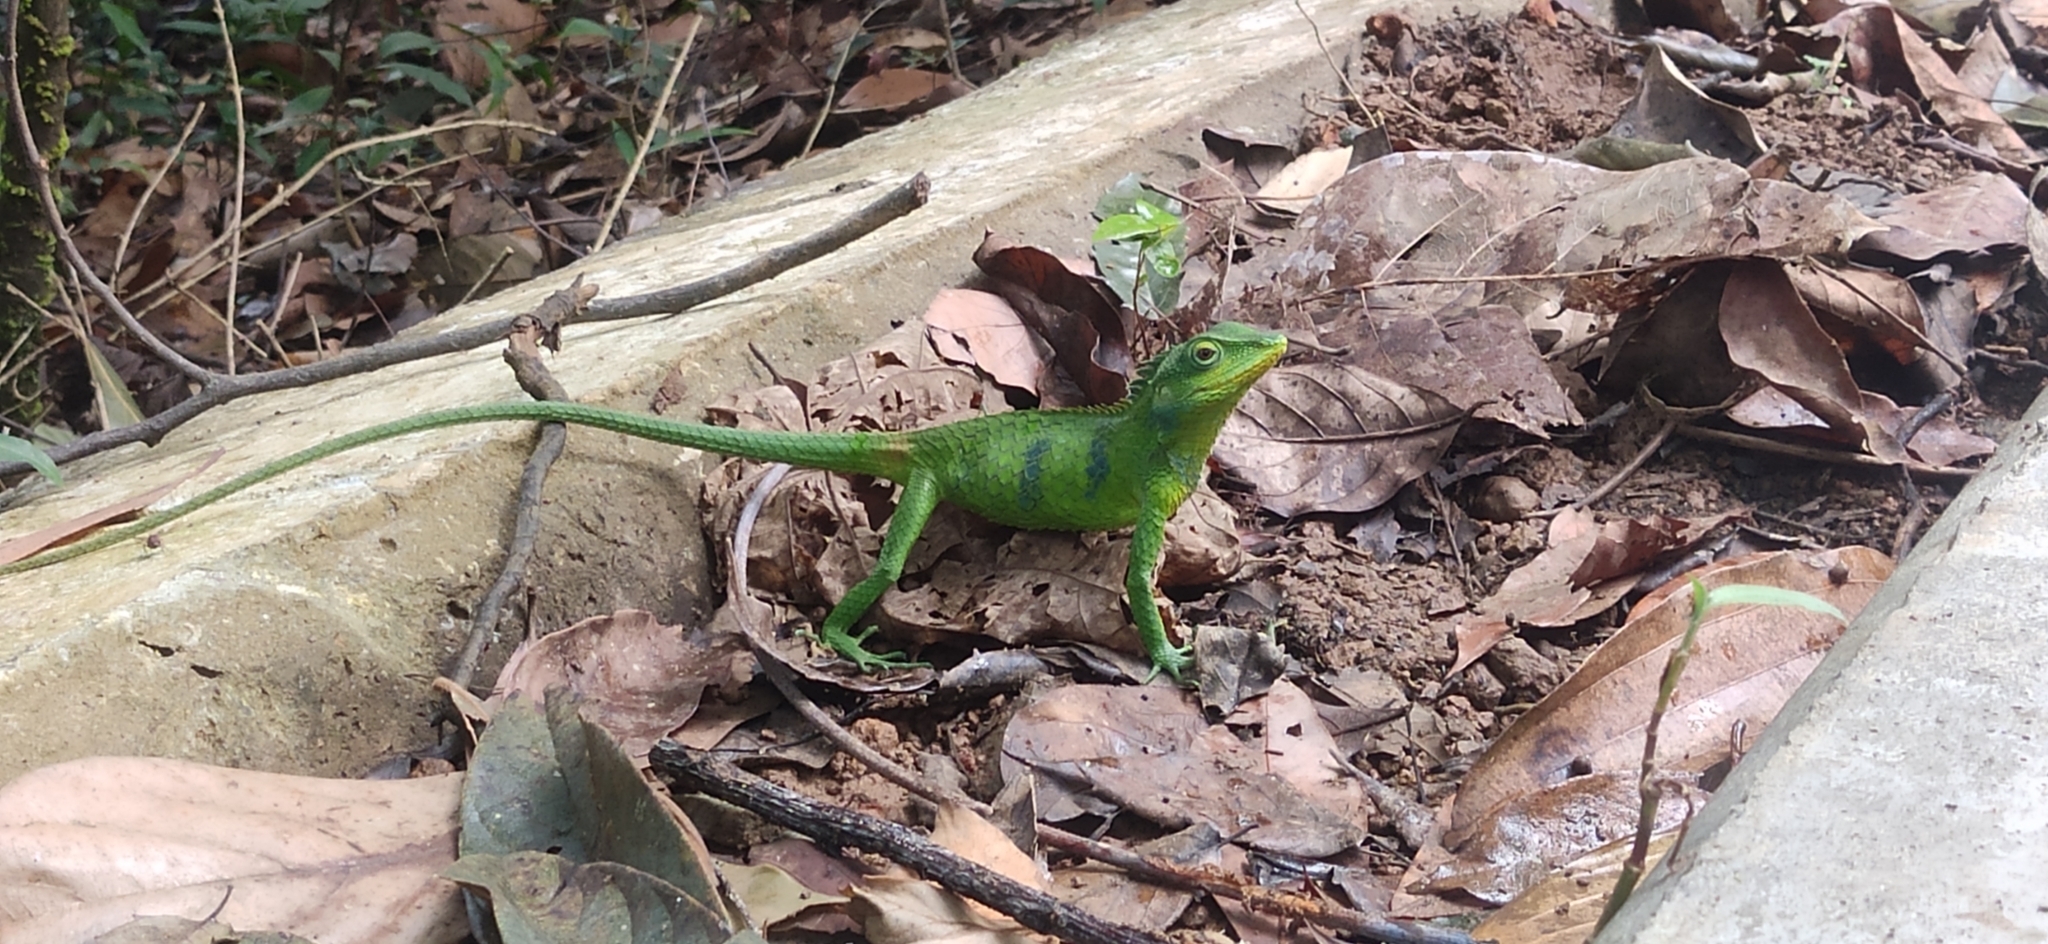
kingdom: Animalia
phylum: Chordata
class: Squamata
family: Agamidae
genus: Calotes
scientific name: Calotes grandisquamis
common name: Big scaled variable lizard
